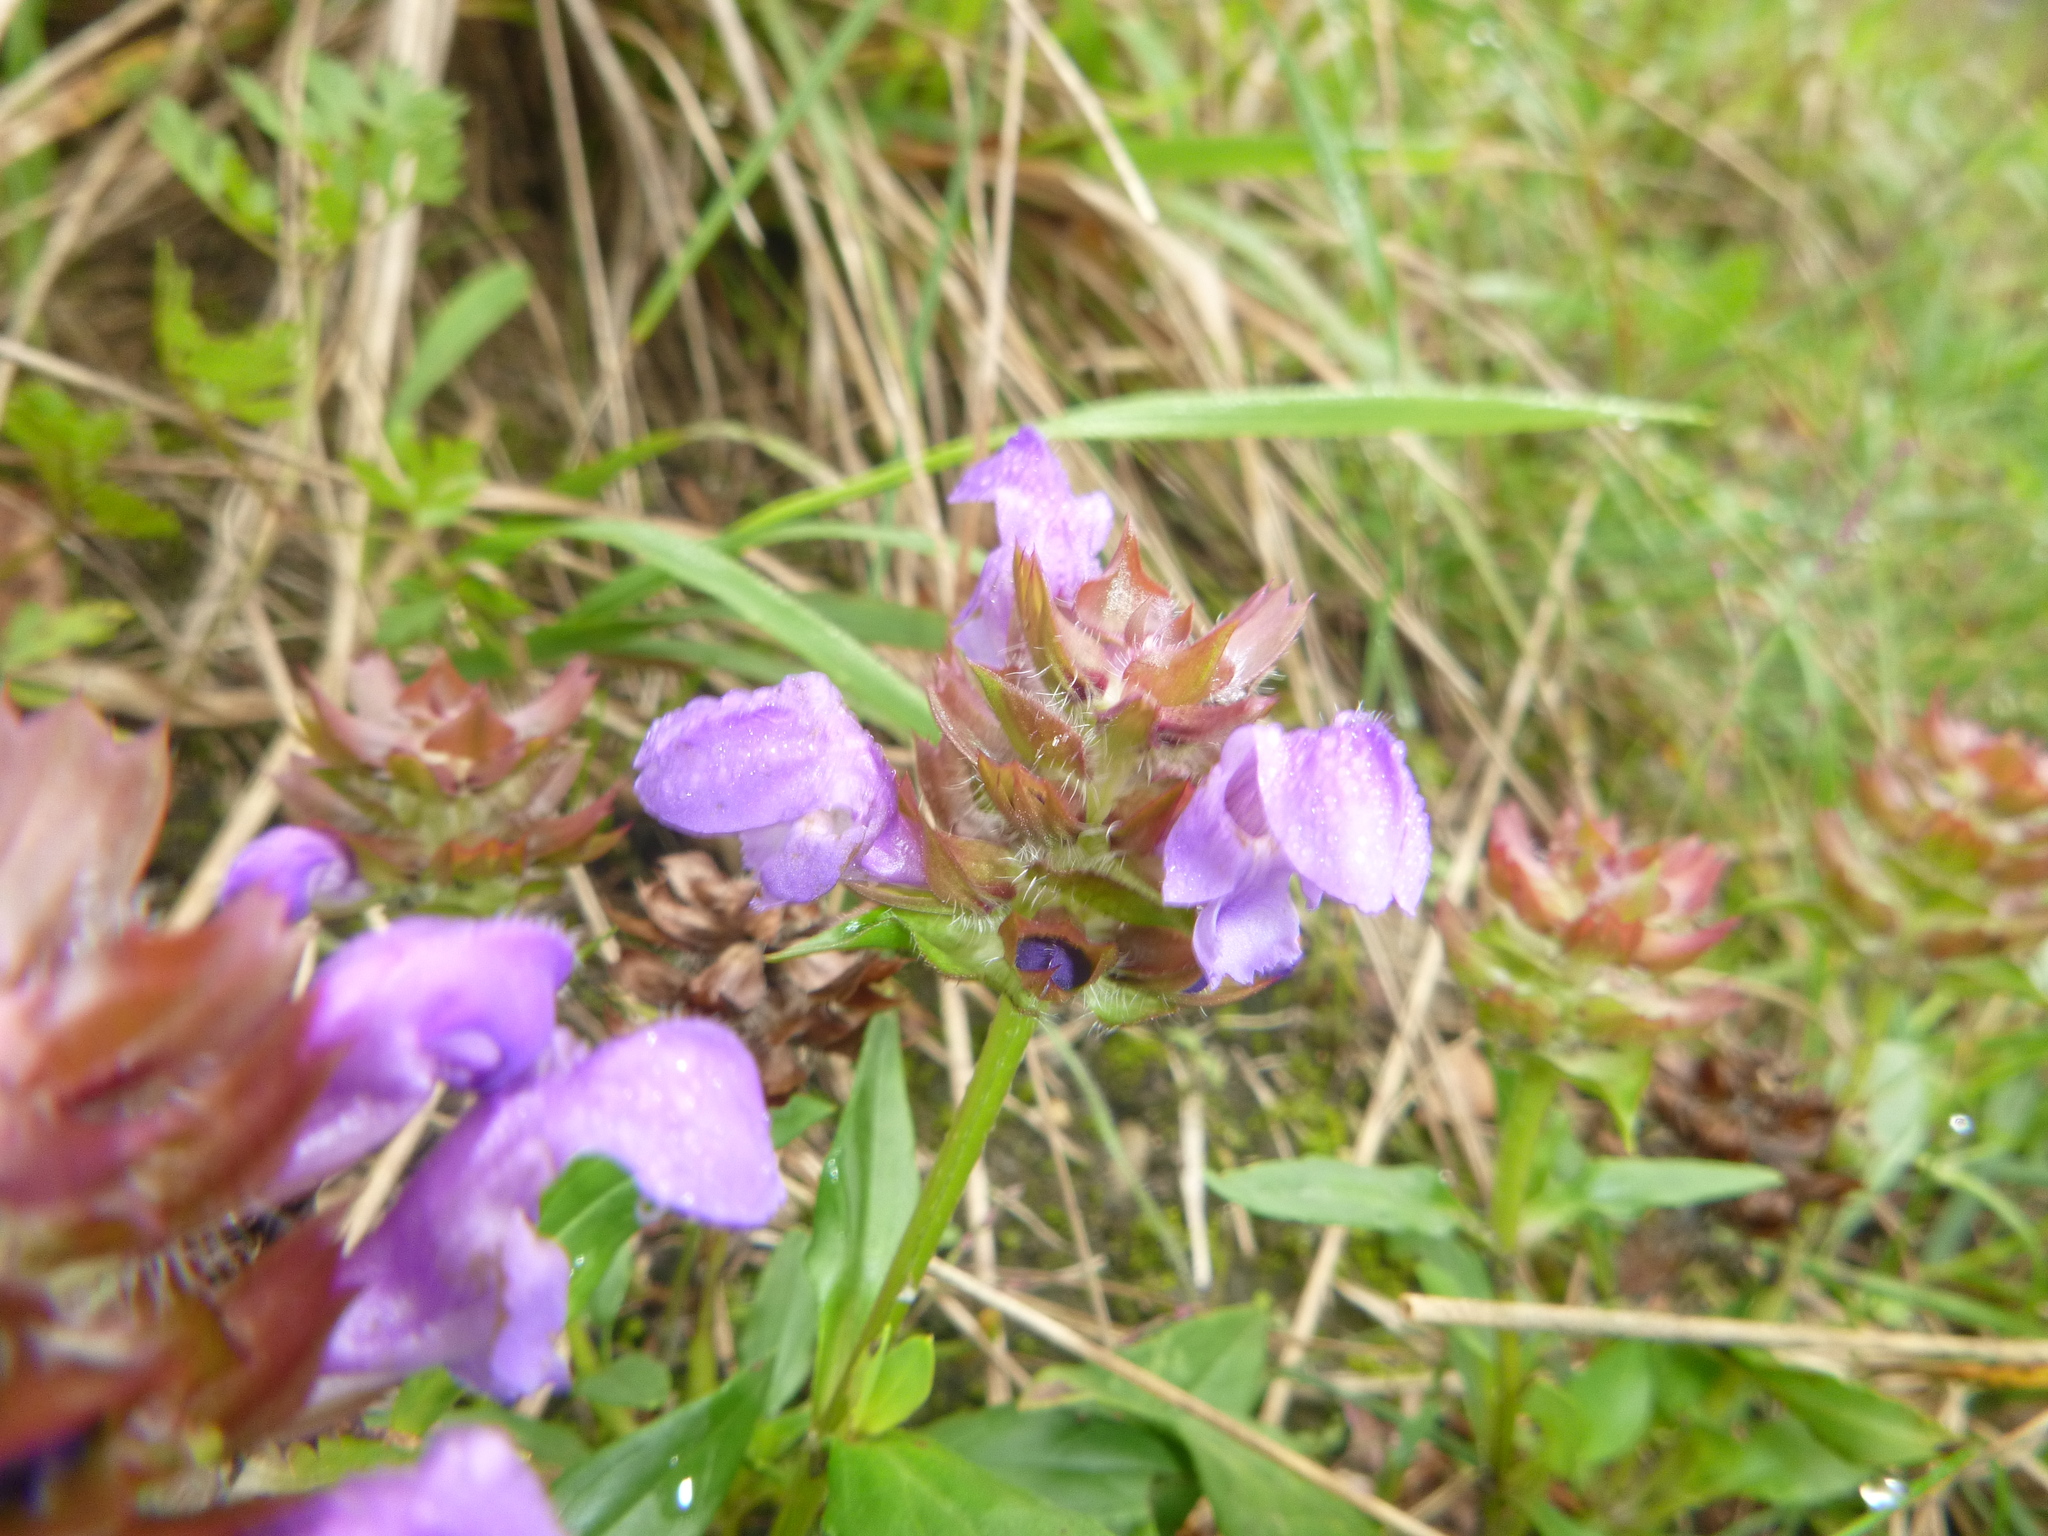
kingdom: Plantae
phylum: Tracheophyta
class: Magnoliopsida
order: Lamiales
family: Lamiaceae
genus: Prunella
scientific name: Prunella grandiflora
